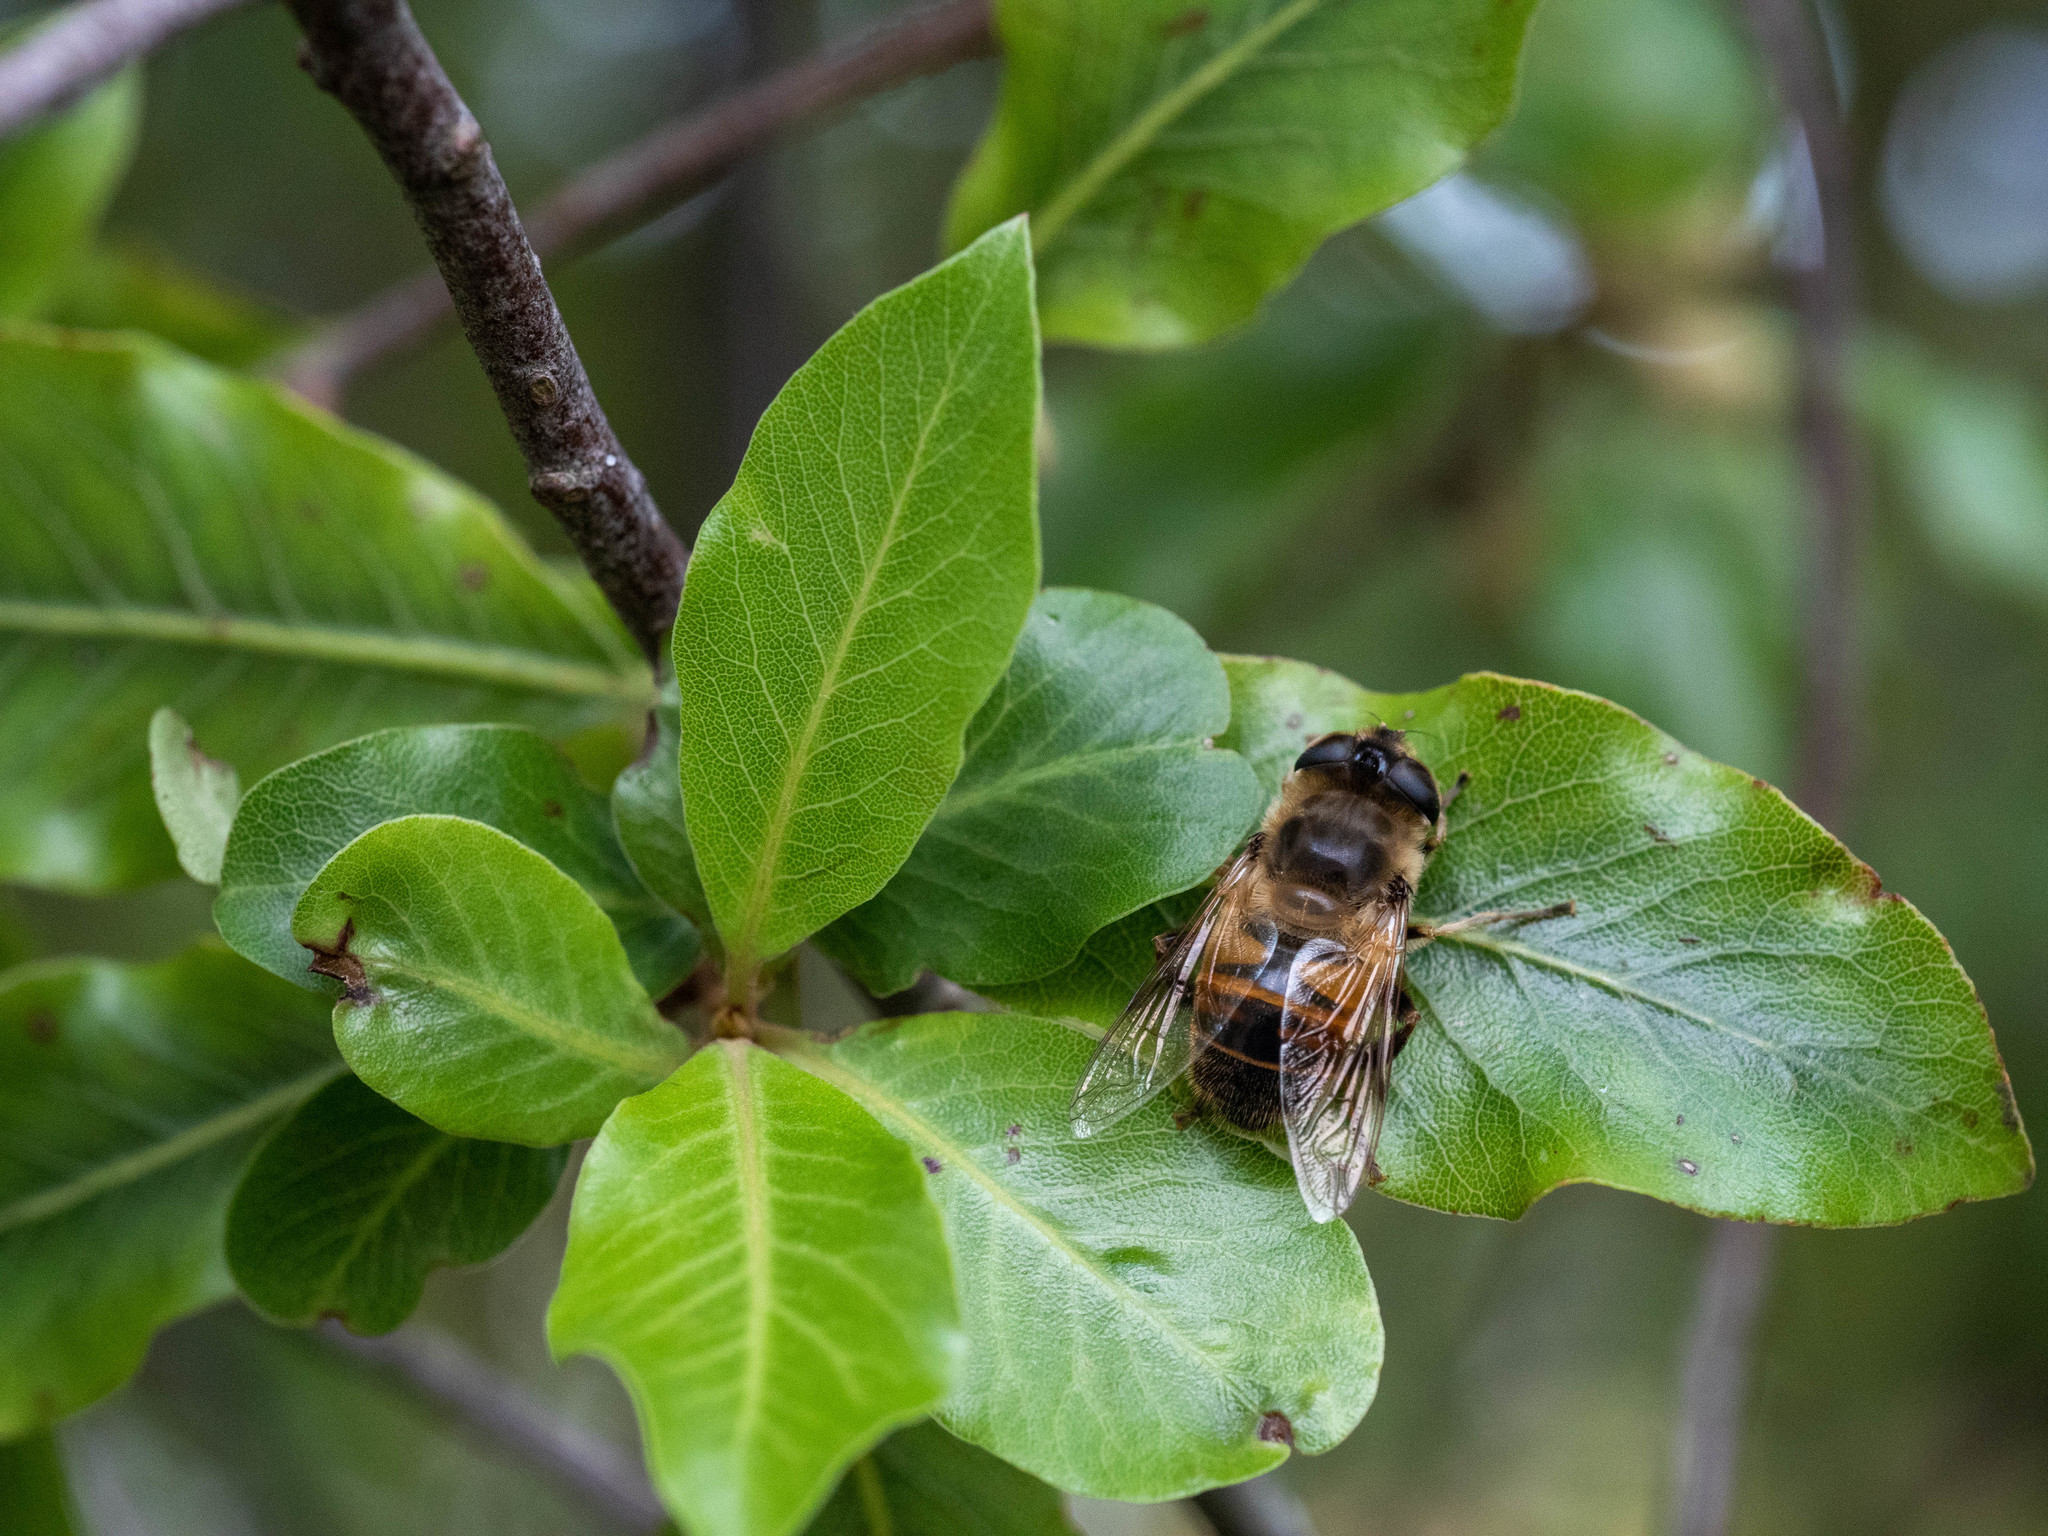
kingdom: Animalia
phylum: Arthropoda
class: Insecta
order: Diptera
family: Syrphidae
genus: Eristalis
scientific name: Eristalis tenax
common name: Drone fly
